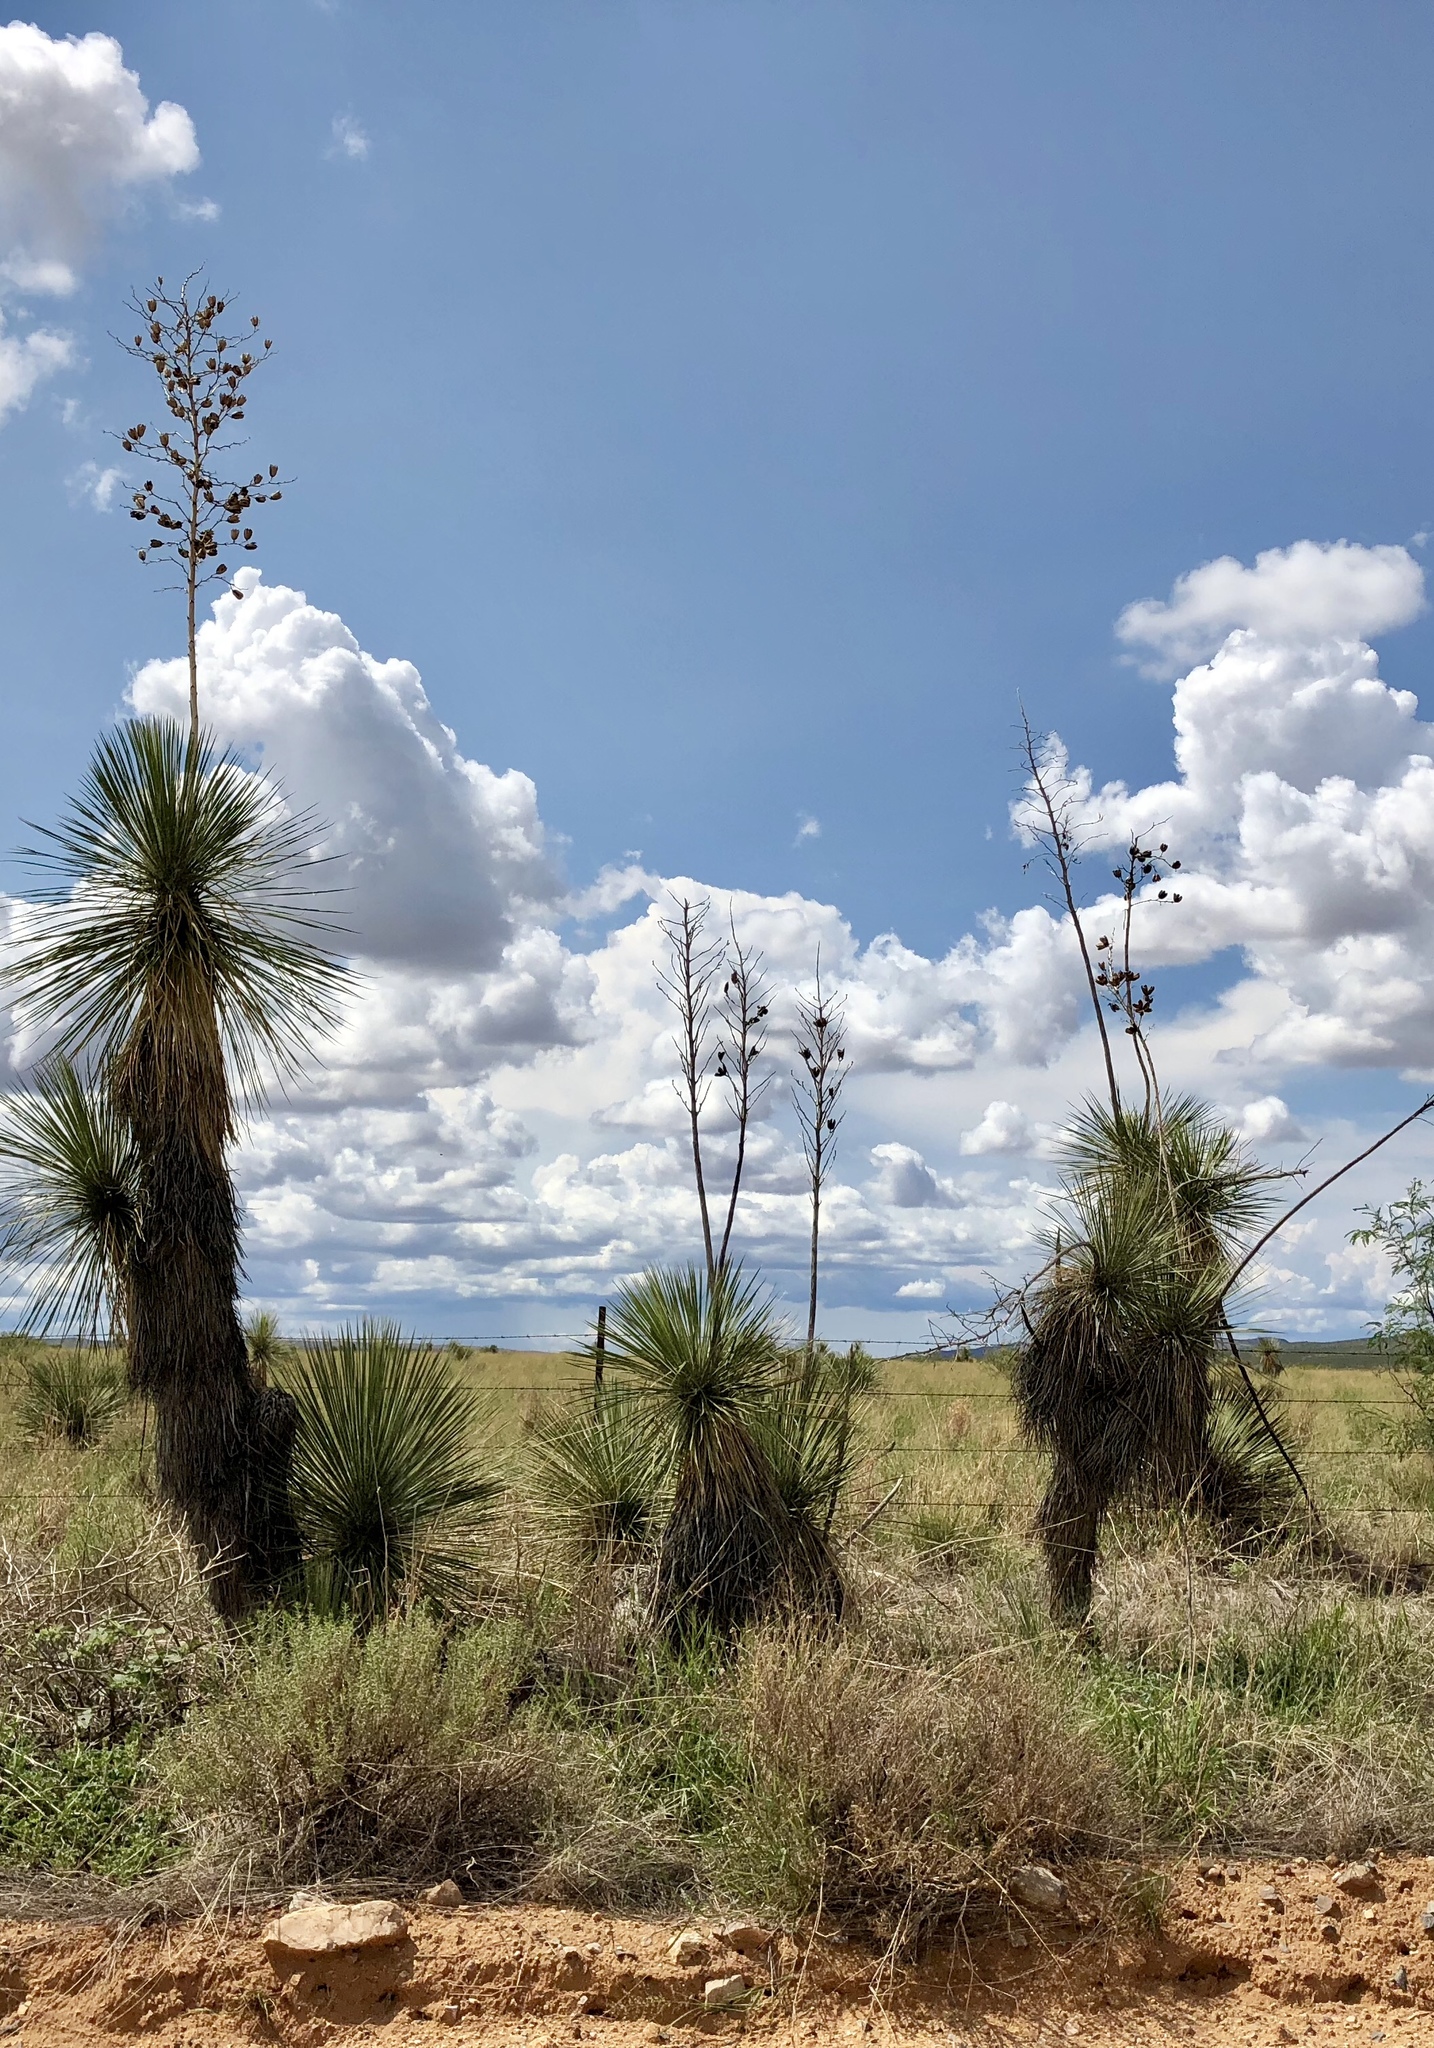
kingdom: Plantae
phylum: Tracheophyta
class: Liliopsida
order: Asparagales
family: Asparagaceae
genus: Yucca
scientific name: Yucca elata
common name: Palmella
